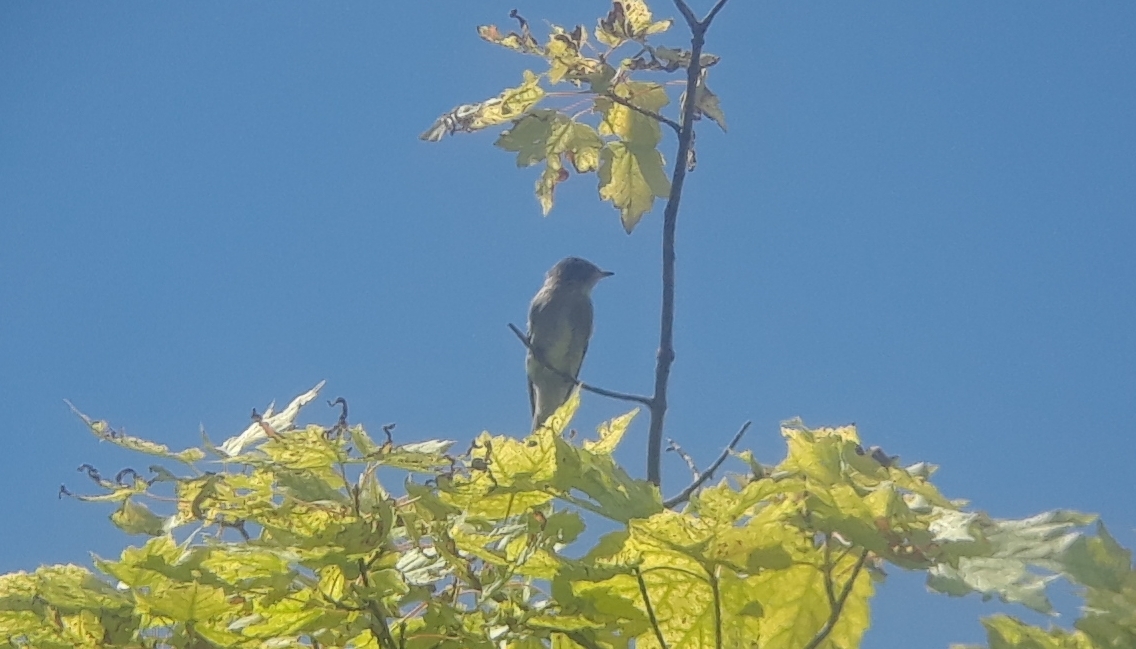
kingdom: Animalia
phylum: Chordata
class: Aves
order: Passeriformes
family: Tyrannidae
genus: Contopus
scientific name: Contopus virens
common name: Eastern wood-pewee
